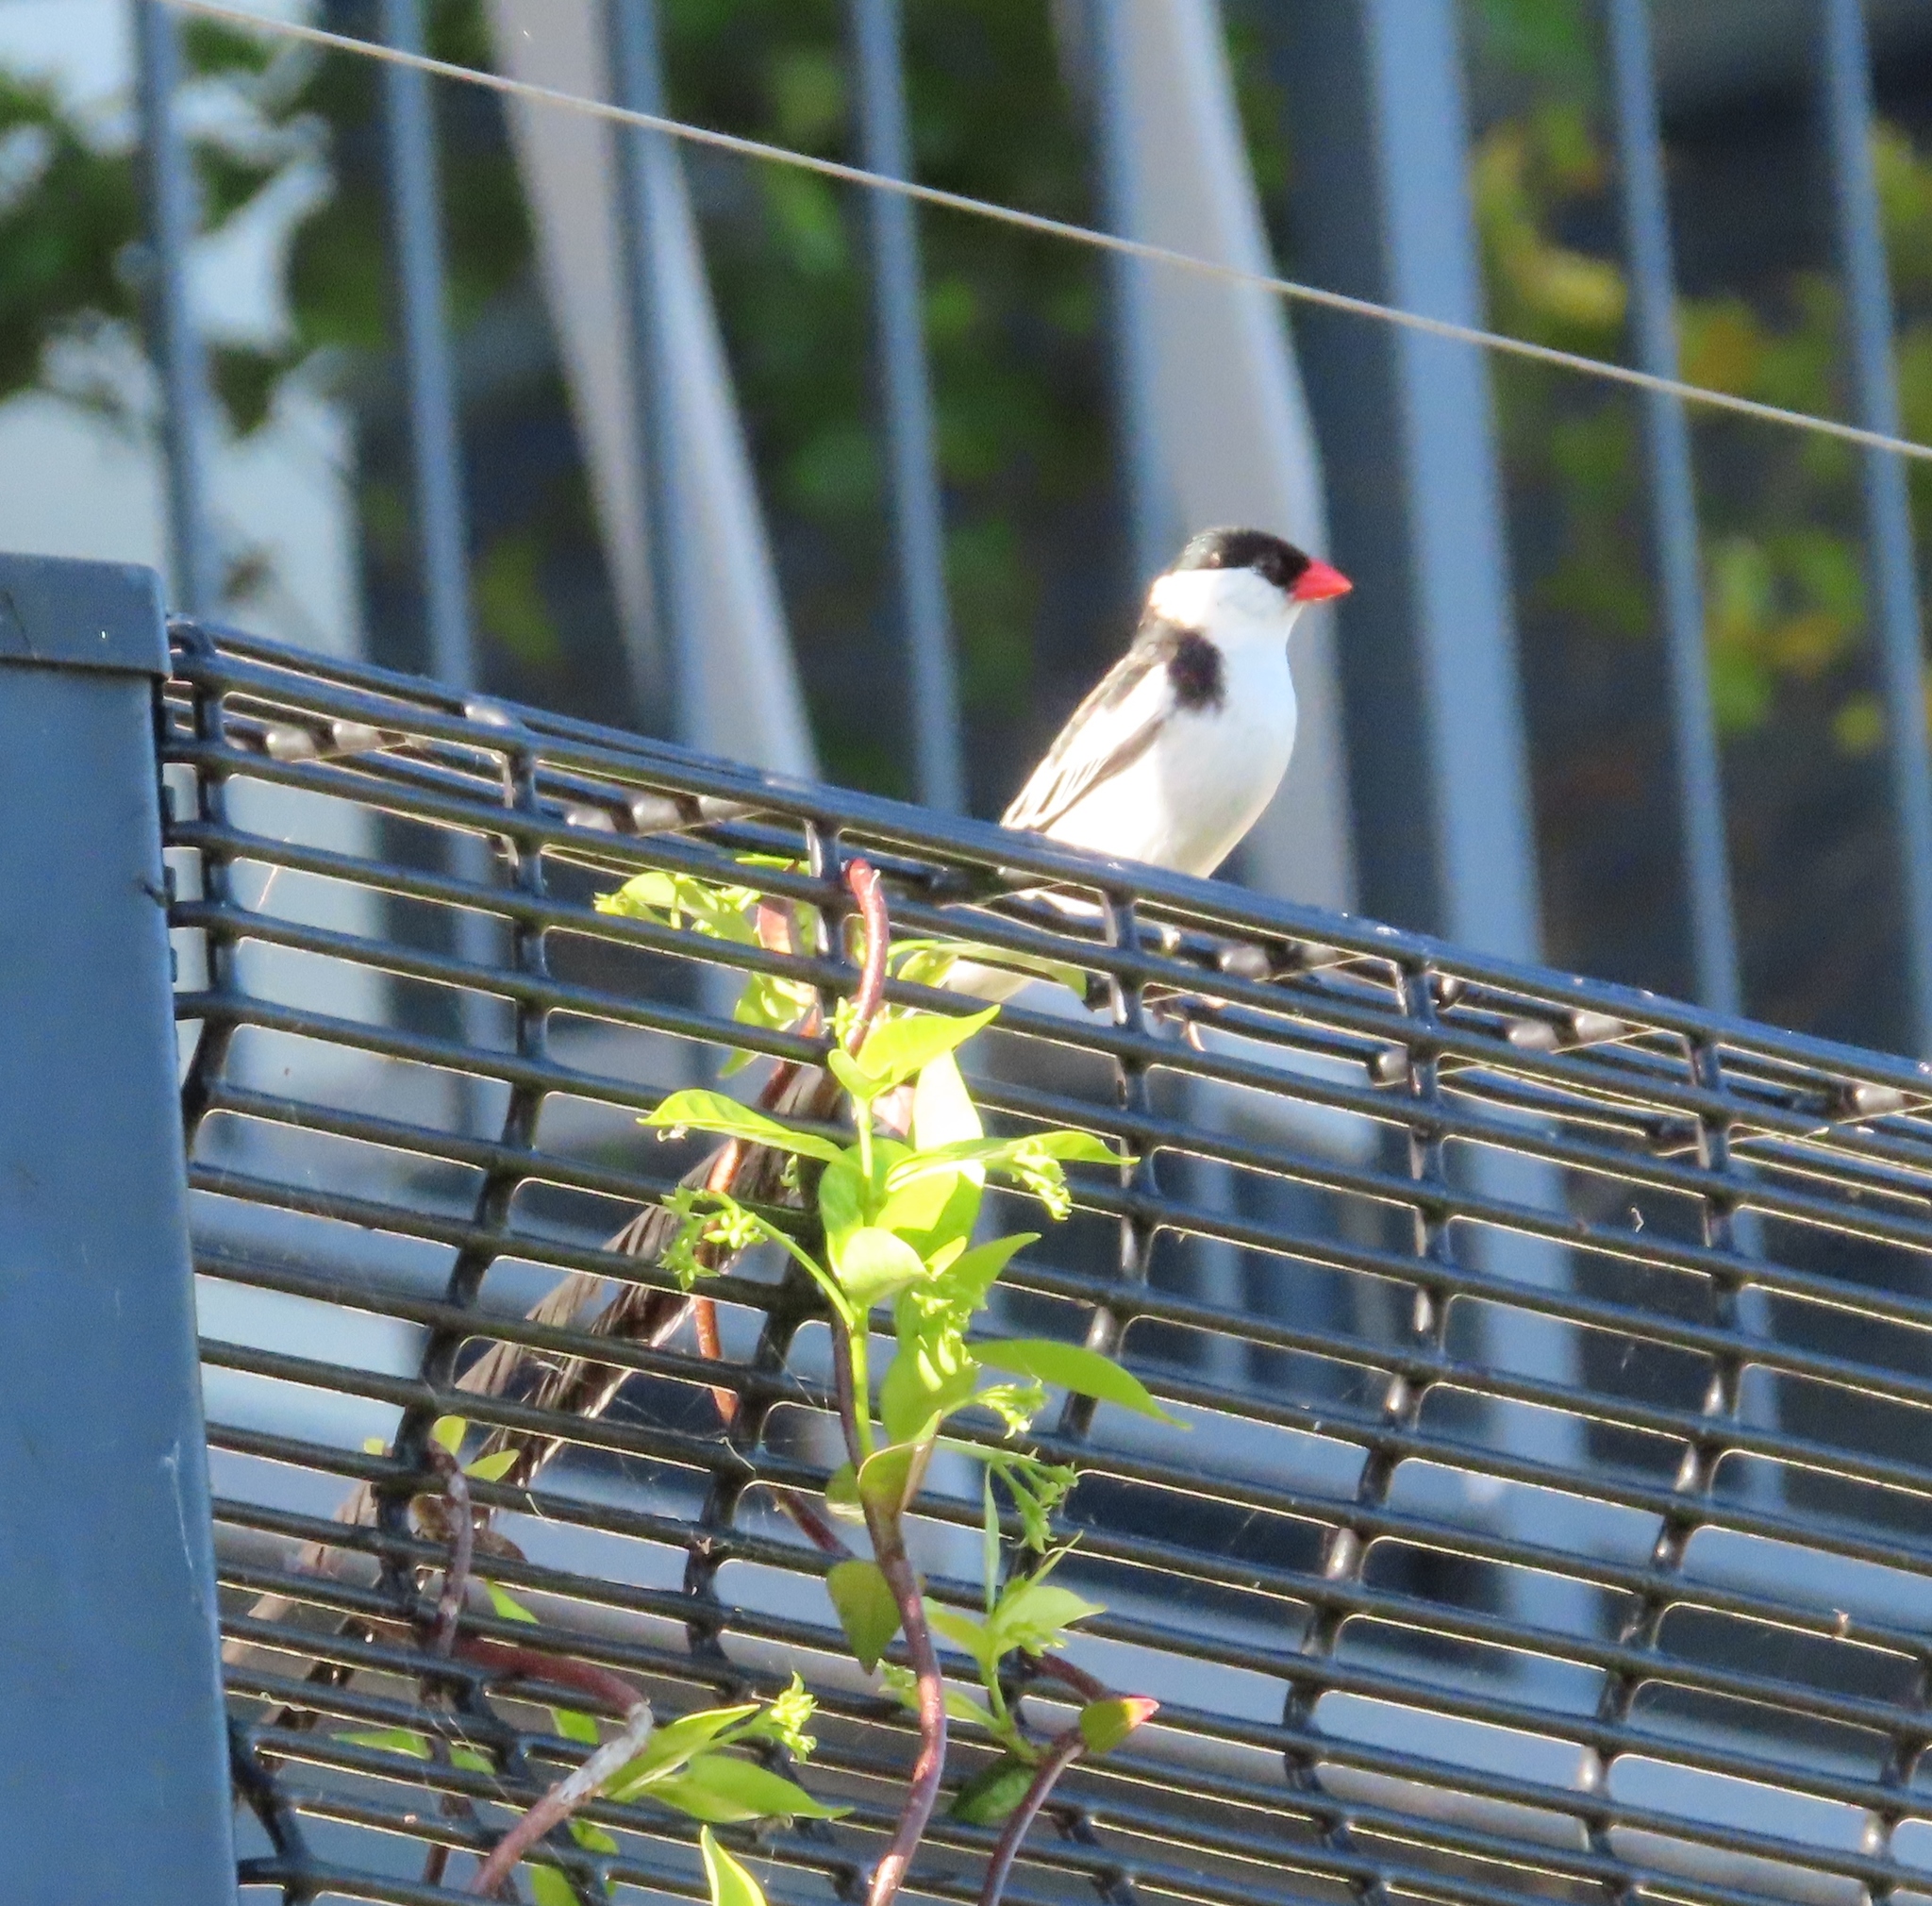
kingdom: Animalia
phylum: Chordata
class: Aves
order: Passeriformes
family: Viduidae
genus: Vidua
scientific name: Vidua macroura
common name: Pin-tailed whydah
